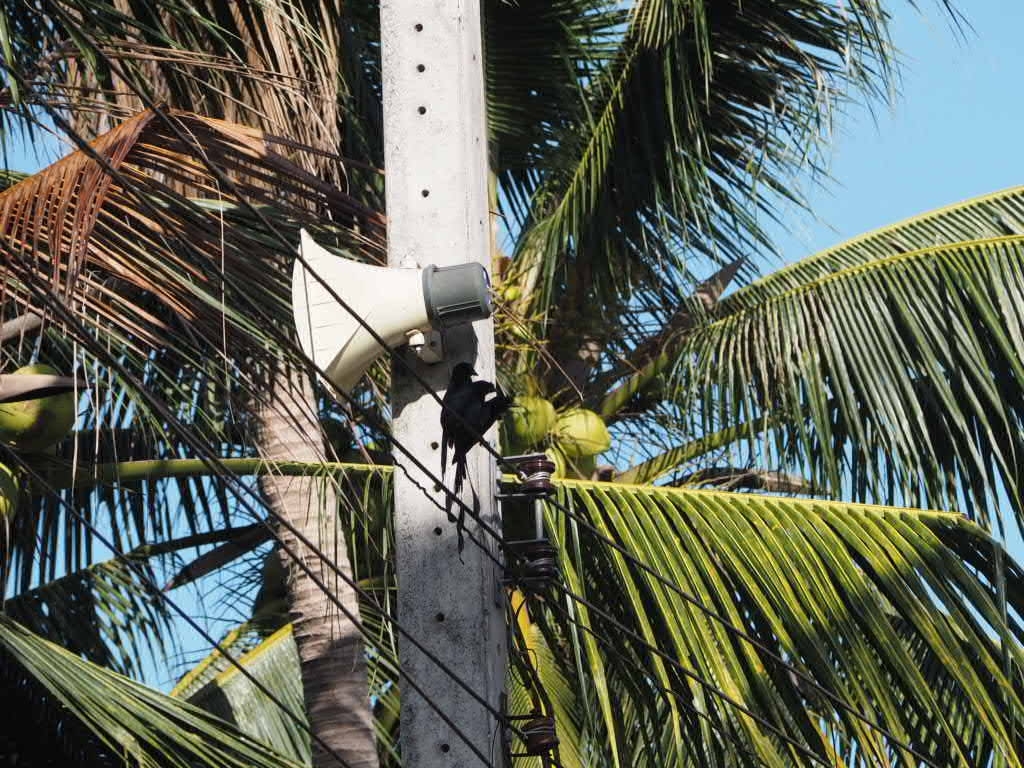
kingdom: Animalia
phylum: Chordata
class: Aves
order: Passeriformes
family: Dicruridae
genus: Dicrurus
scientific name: Dicrurus paradiseus
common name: Greater racket-tailed drongo
